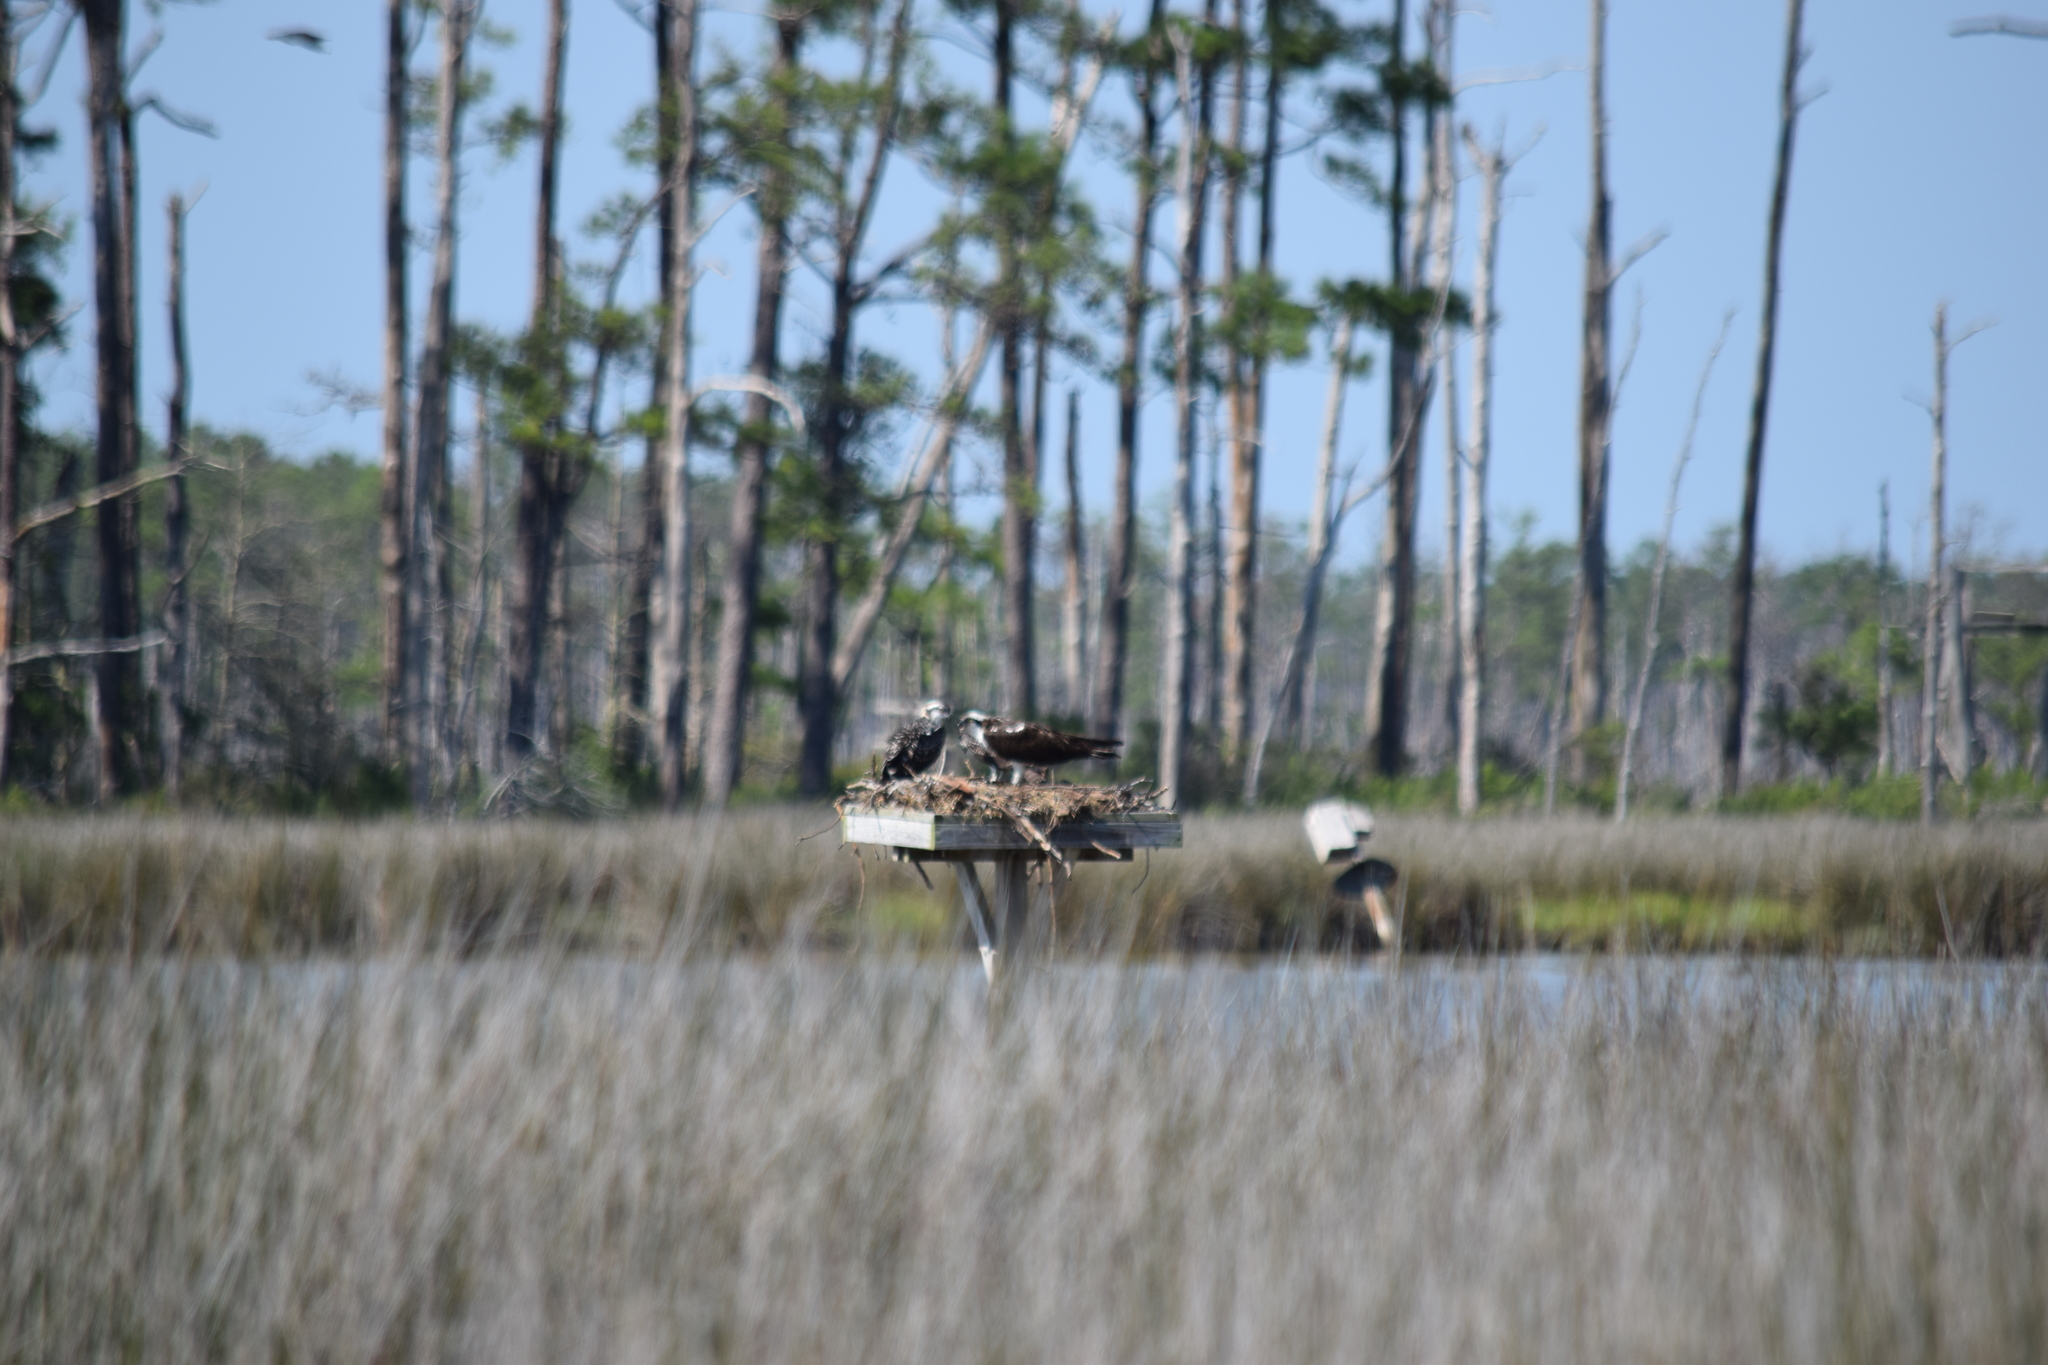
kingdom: Animalia
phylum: Chordata
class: Aves
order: Accipitriformes
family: Pandionidae
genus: Pandion
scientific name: Pandion haliaetus
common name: Osprey
